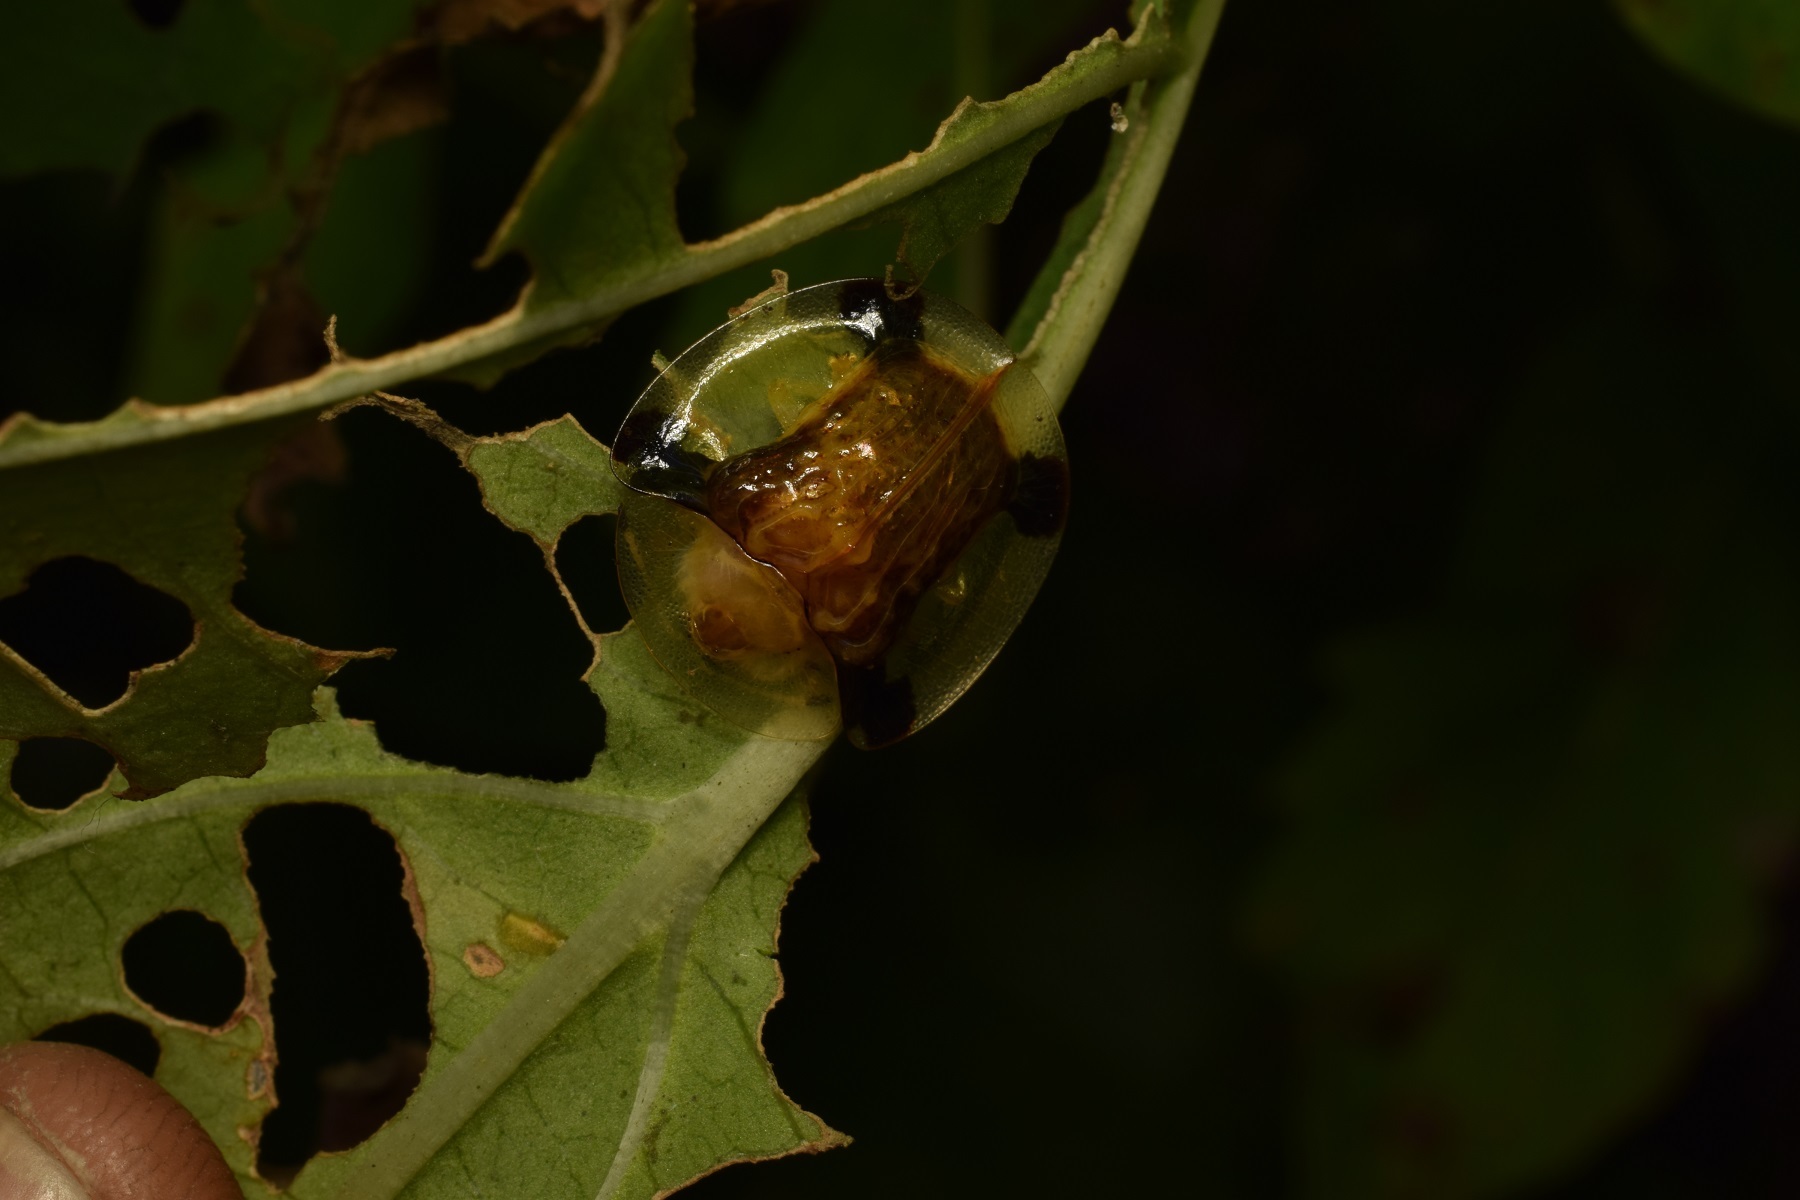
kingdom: Animalia
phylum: Arthropoda
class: Insecta
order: Coleoptera
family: Chrysomelidae
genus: Aspidimorpha
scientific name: Aspidimorpha sanctaecrucis
